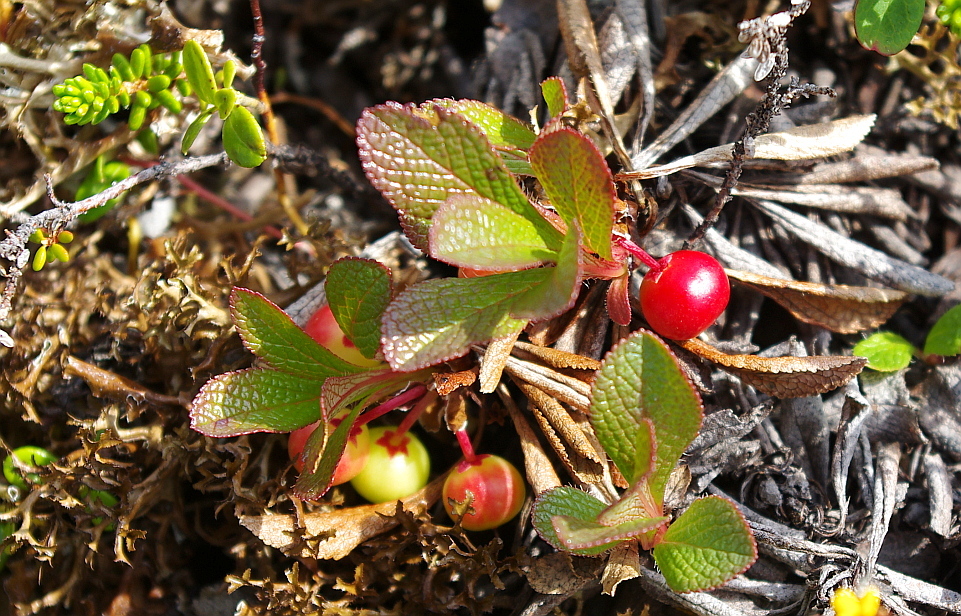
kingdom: Plantae
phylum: Tracheophyta
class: Magnoliopsida
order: Ericales
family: Ericaceae
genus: Arctostaphylos
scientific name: Arctostaphylos alpinus
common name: Alpine bearberry
